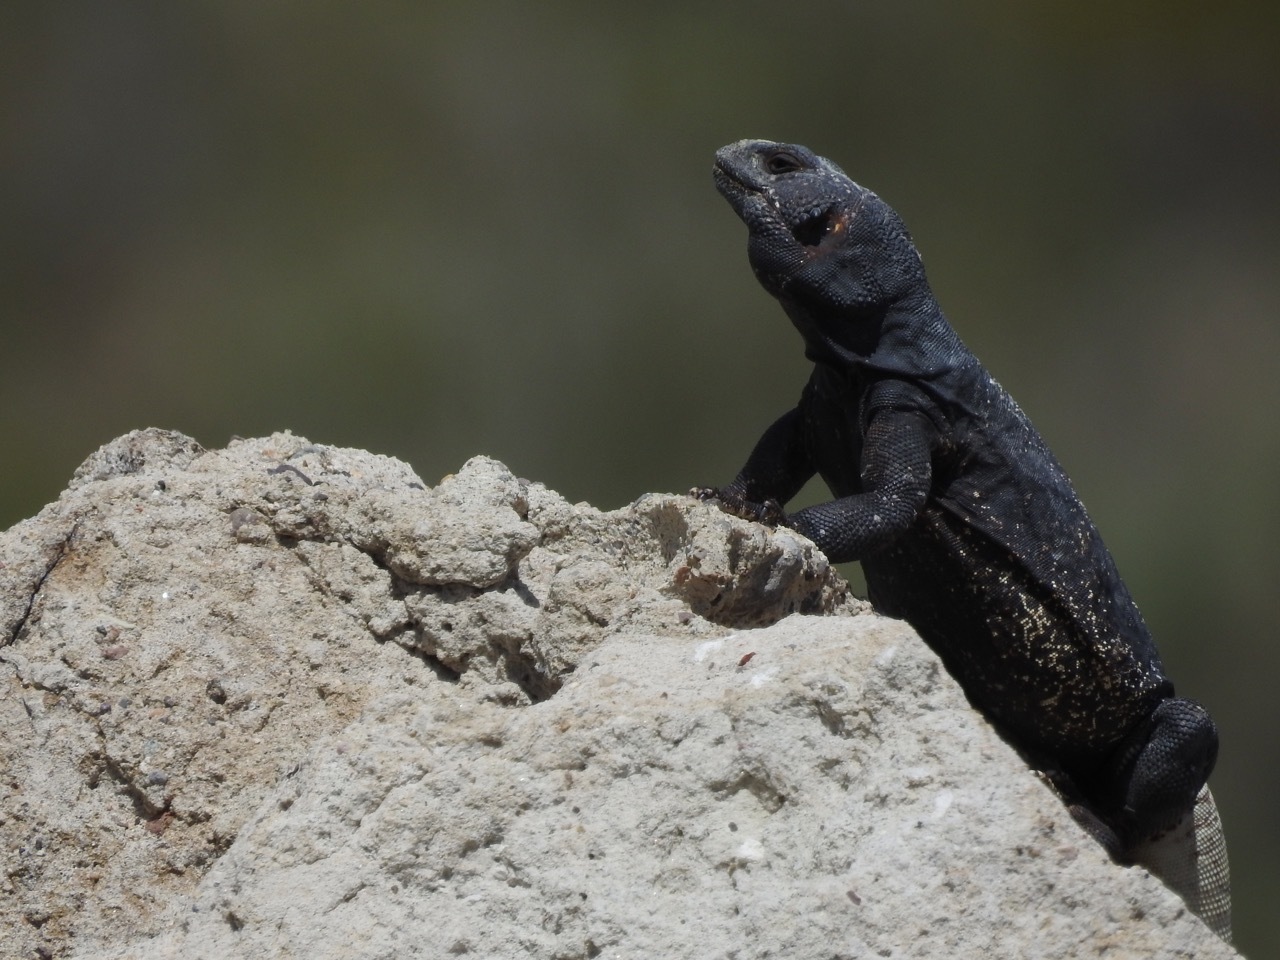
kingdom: Animalia
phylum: Chordata
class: Squamata
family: Iguanidae
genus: Sauromalus
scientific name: Sauromalus ater
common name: Northern chuckwalla
